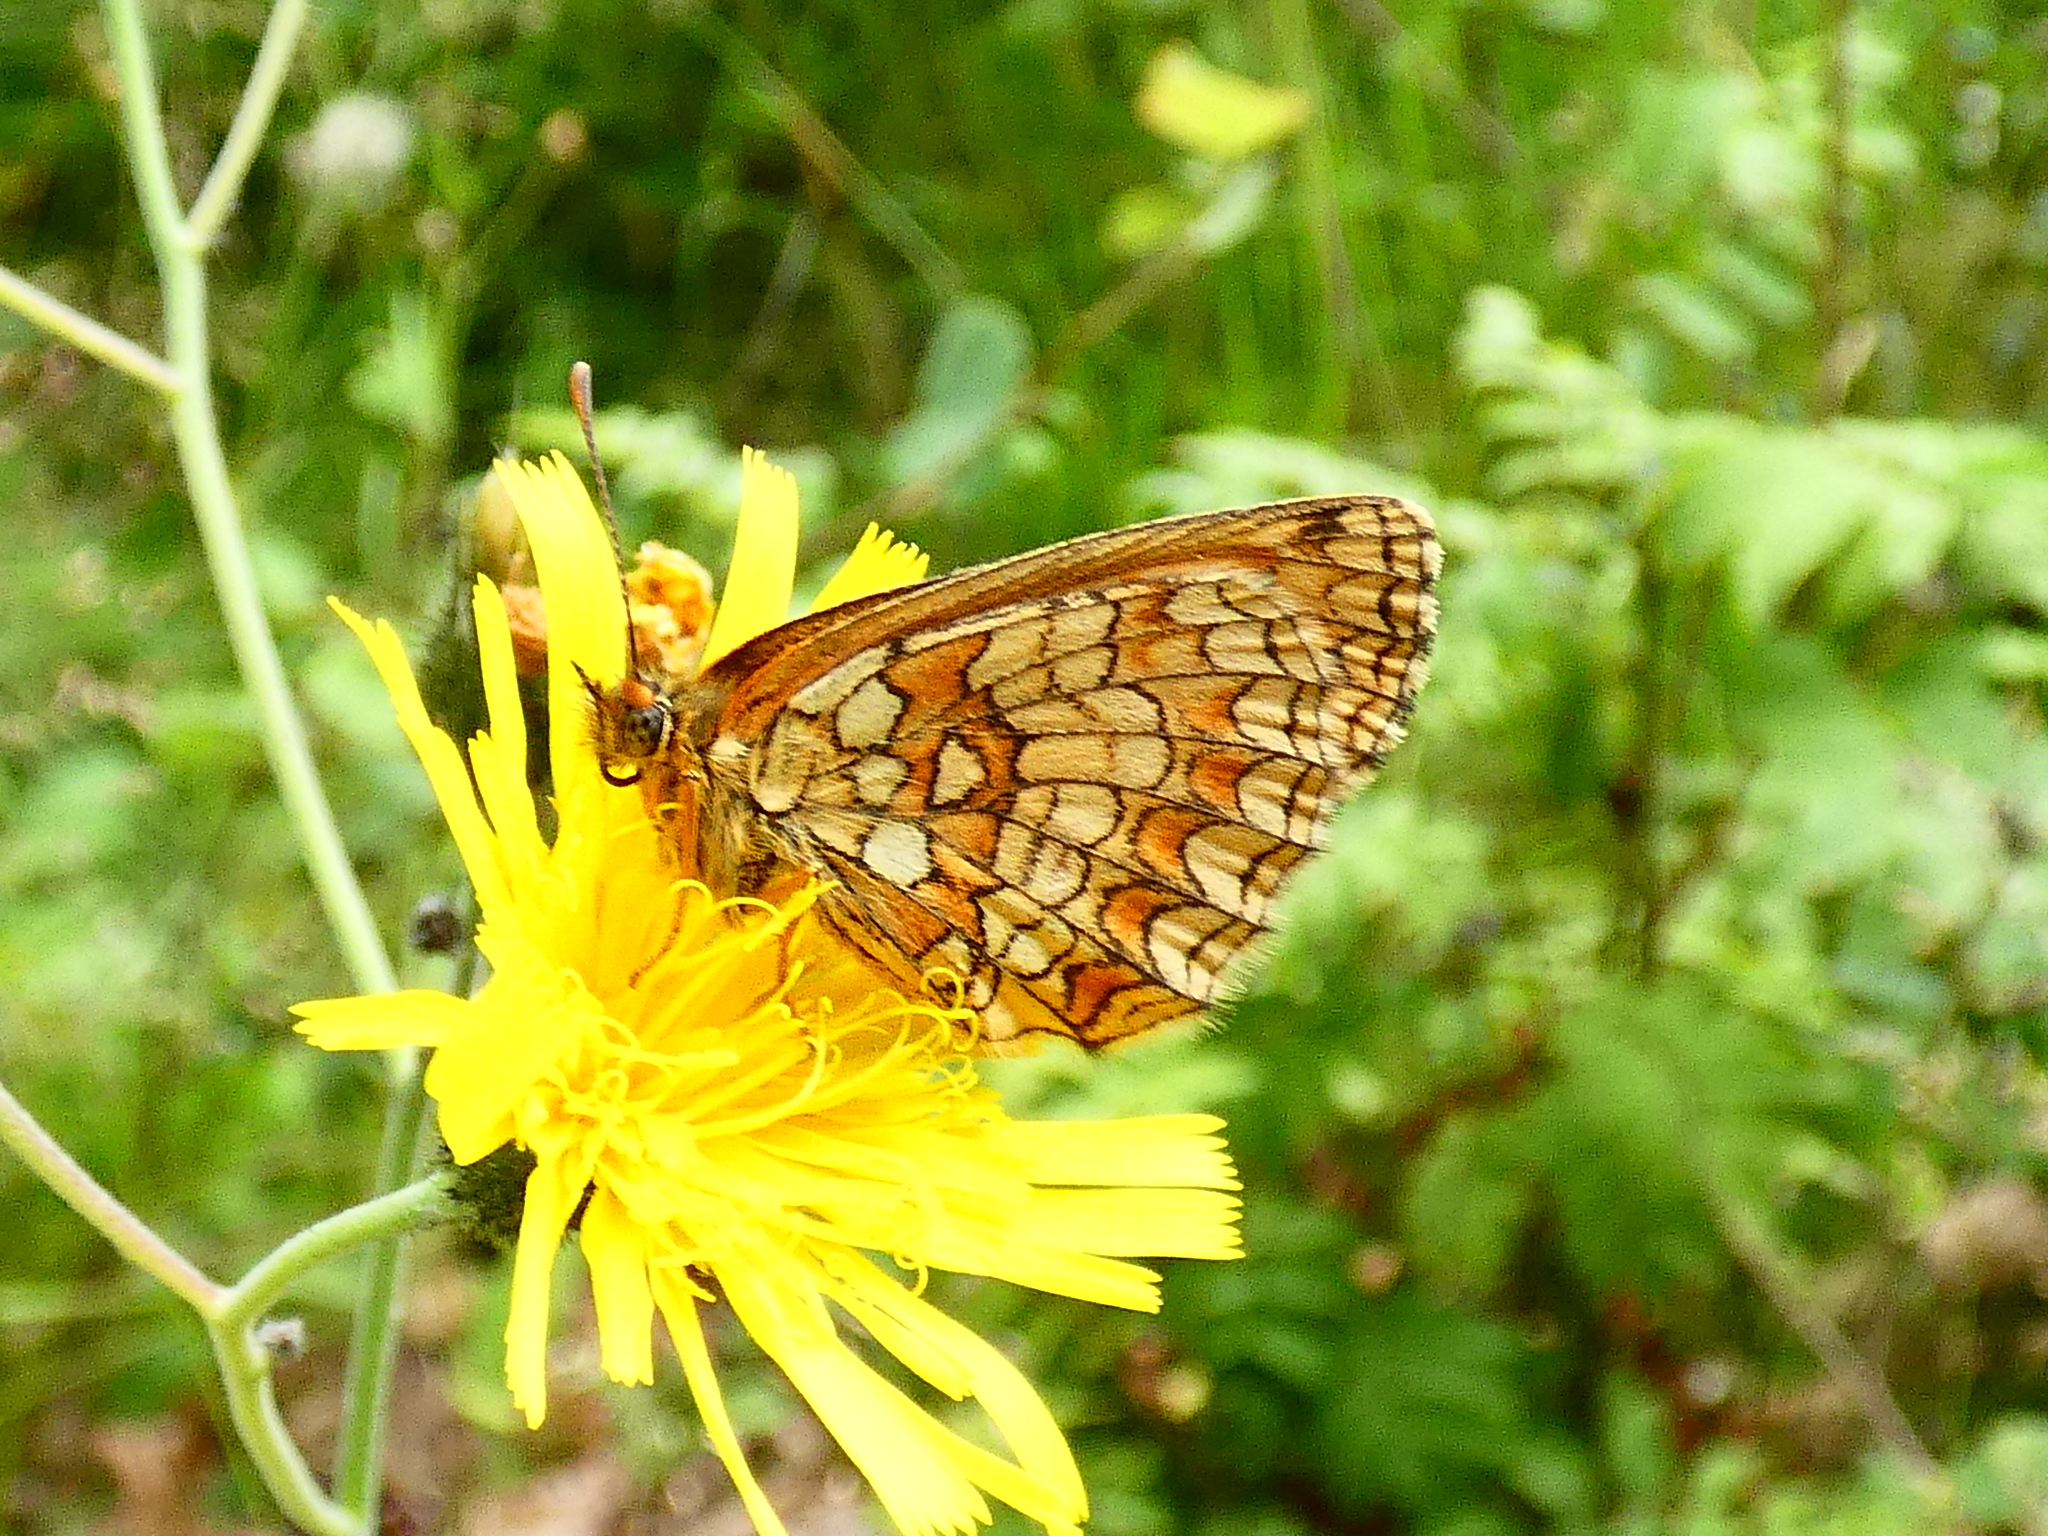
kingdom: Animalia
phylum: Arthropoda
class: Insecta
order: Lepidoptera
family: Nymphalidae
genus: Melitaea
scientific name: Melitaea athalia
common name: Heath fritillary
